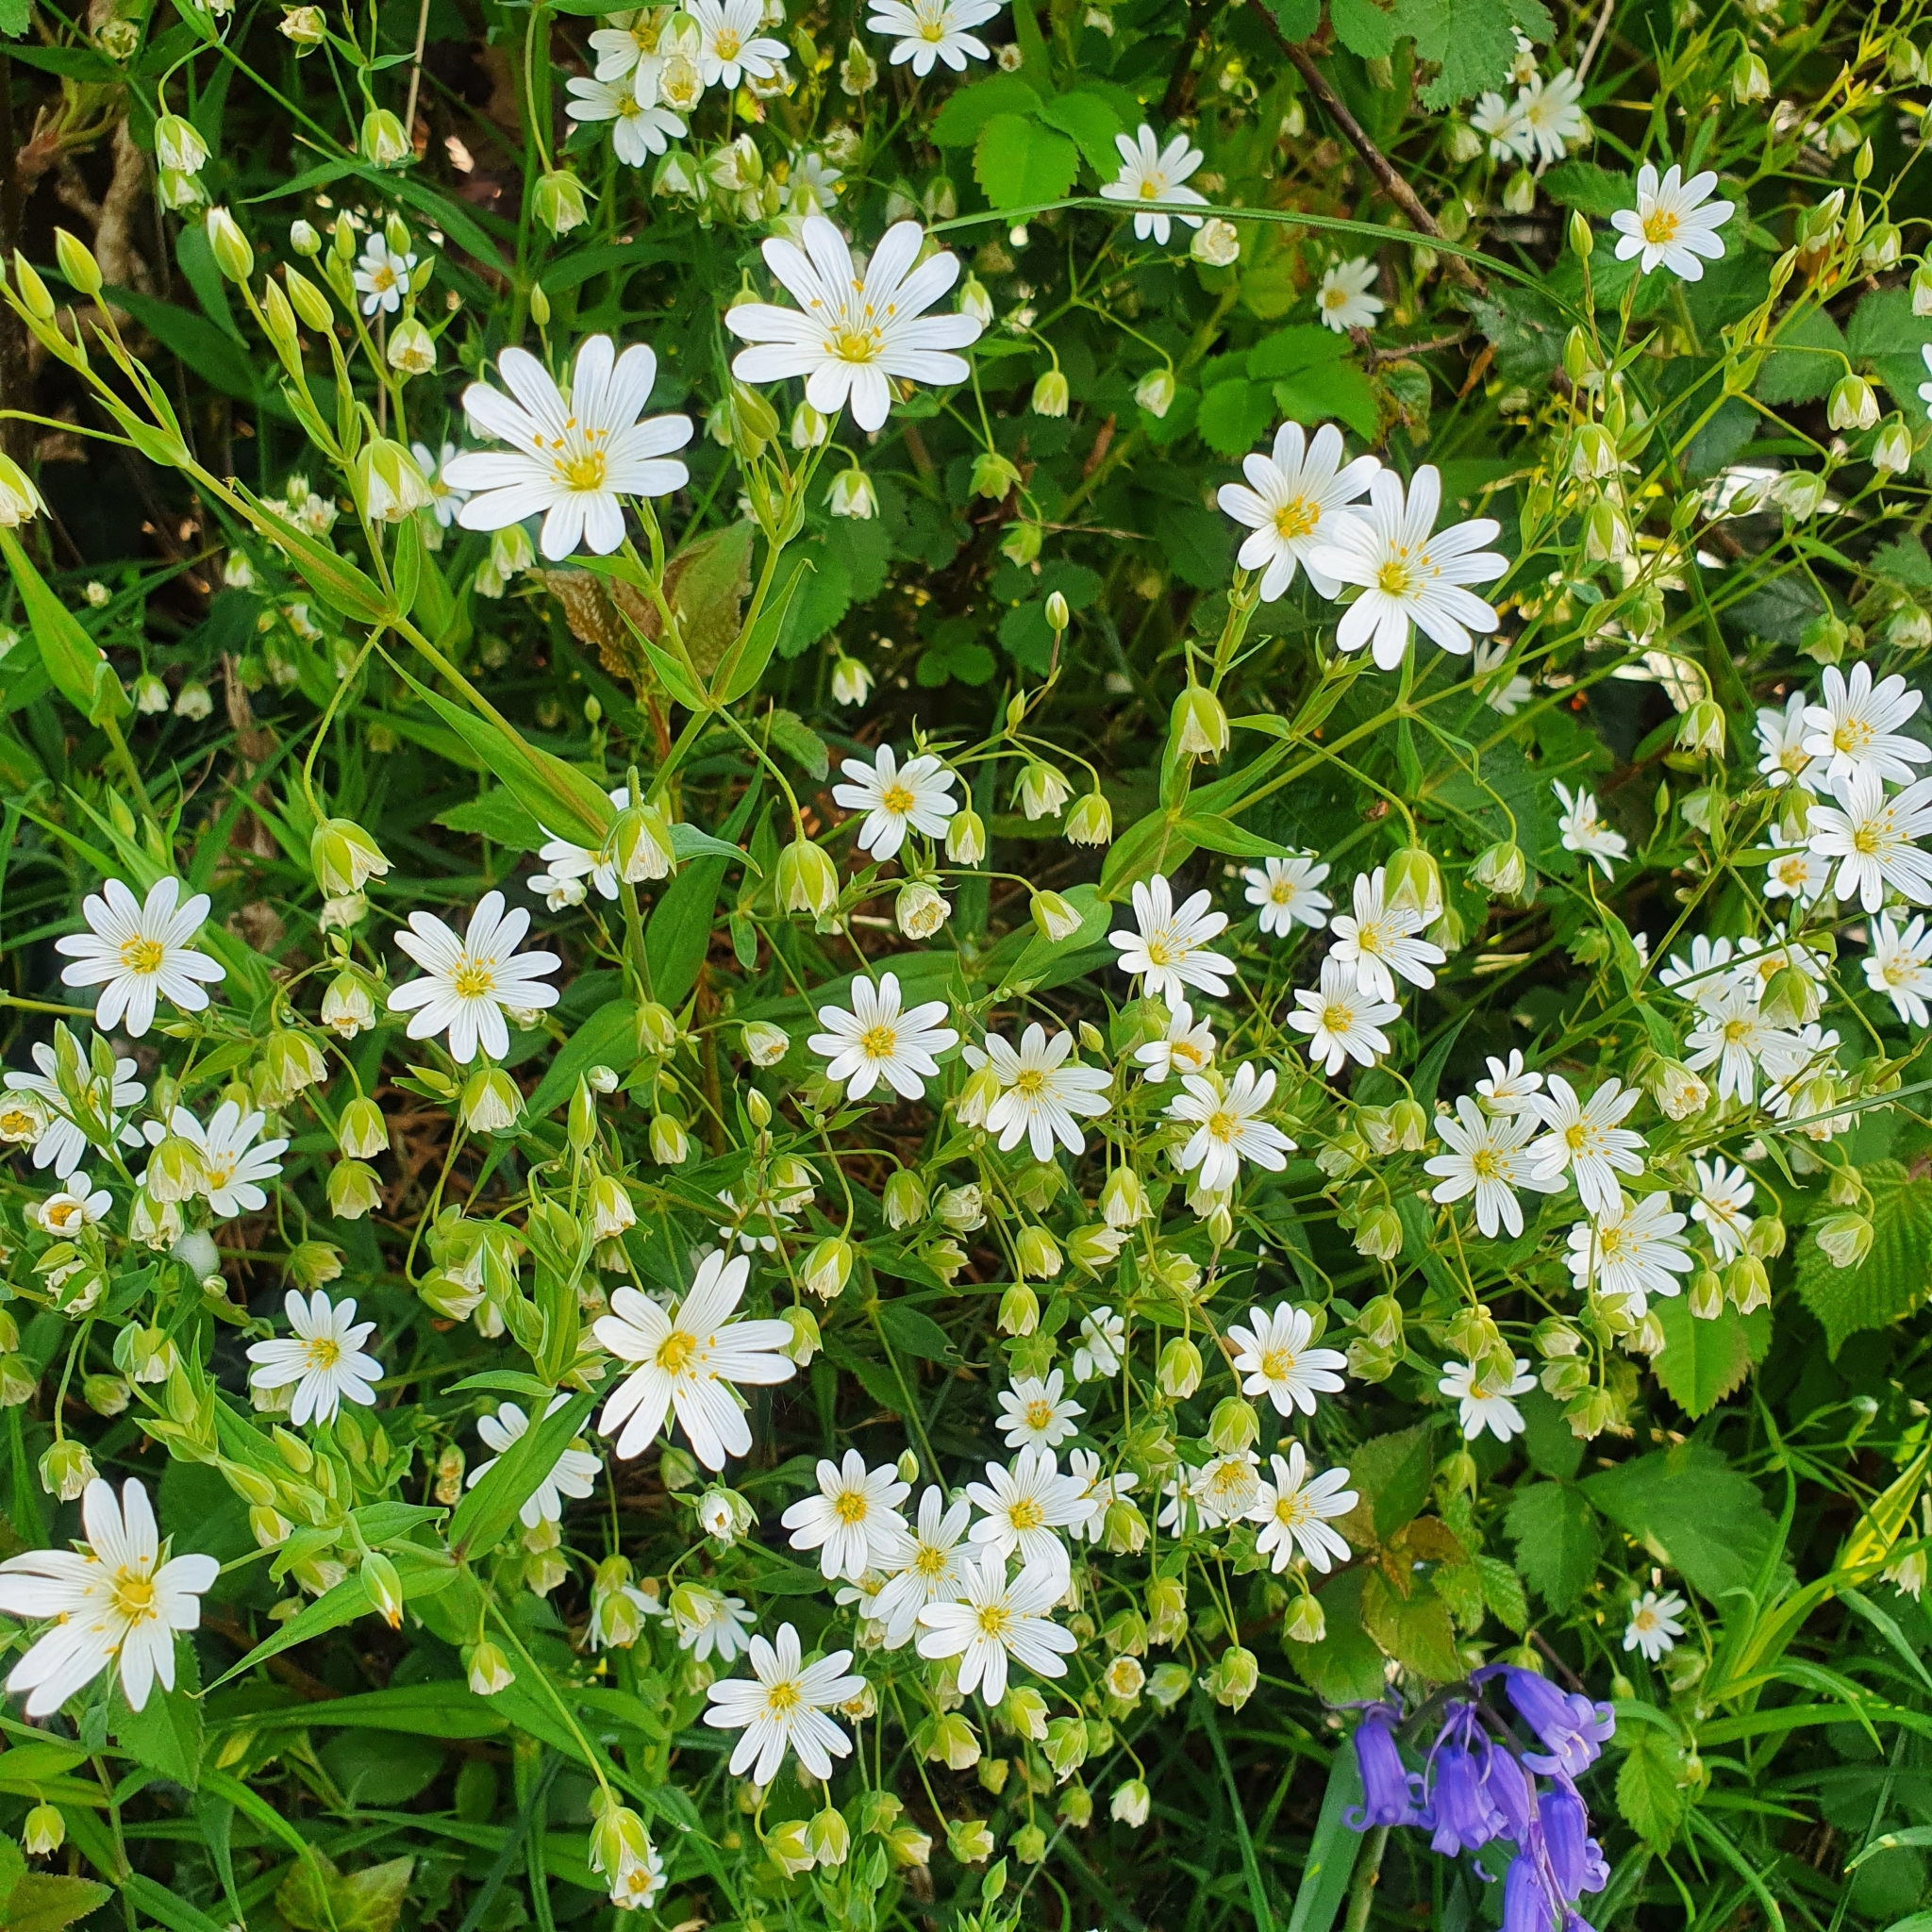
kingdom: Plantae
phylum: Tracheophyta
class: Magnoliopsida
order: Caryophyllales
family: Caryophyllaceae
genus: Rabelera
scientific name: Rabelera holostea
